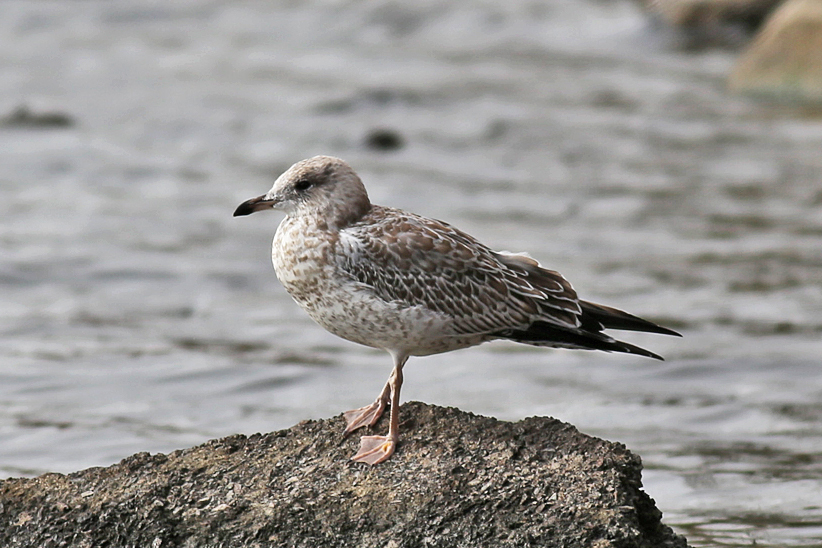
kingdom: Animalia
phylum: Chordata
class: Aves
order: Charadriiformes
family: Laridae
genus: Larus
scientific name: Larus delawarensis
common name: Ring-billed gull
